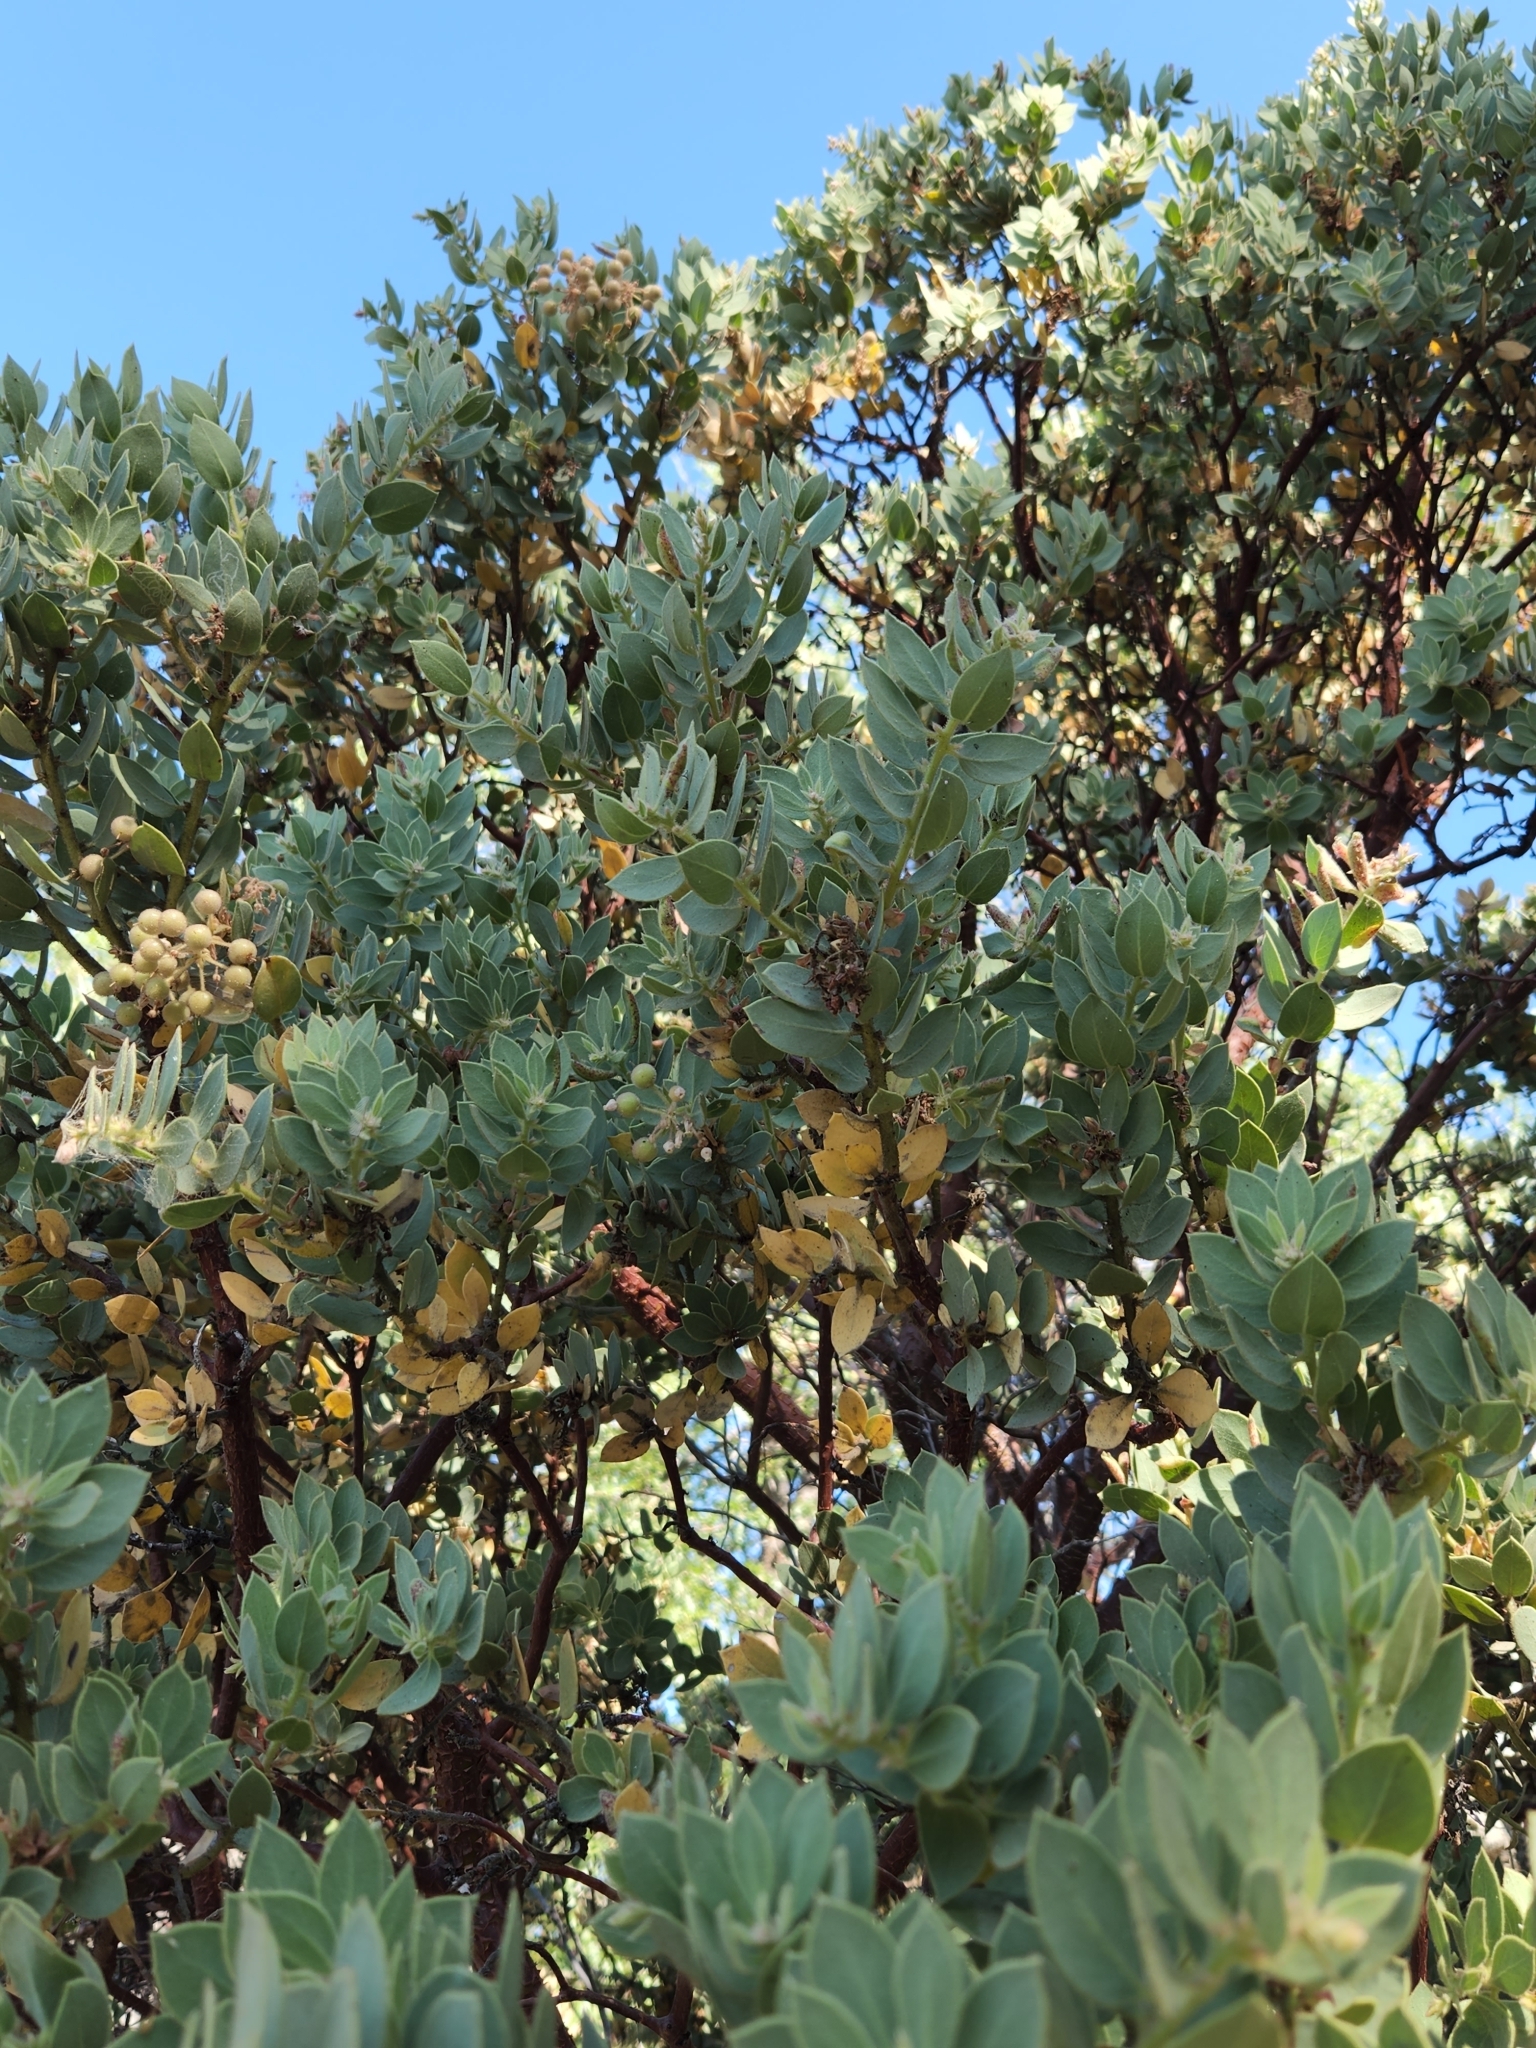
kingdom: Plantae
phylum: Tracheophyta
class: Magnoliopsida
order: Ericales
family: Ericaceae
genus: Arctostaphylos
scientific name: Arctostaphylos pringlei
